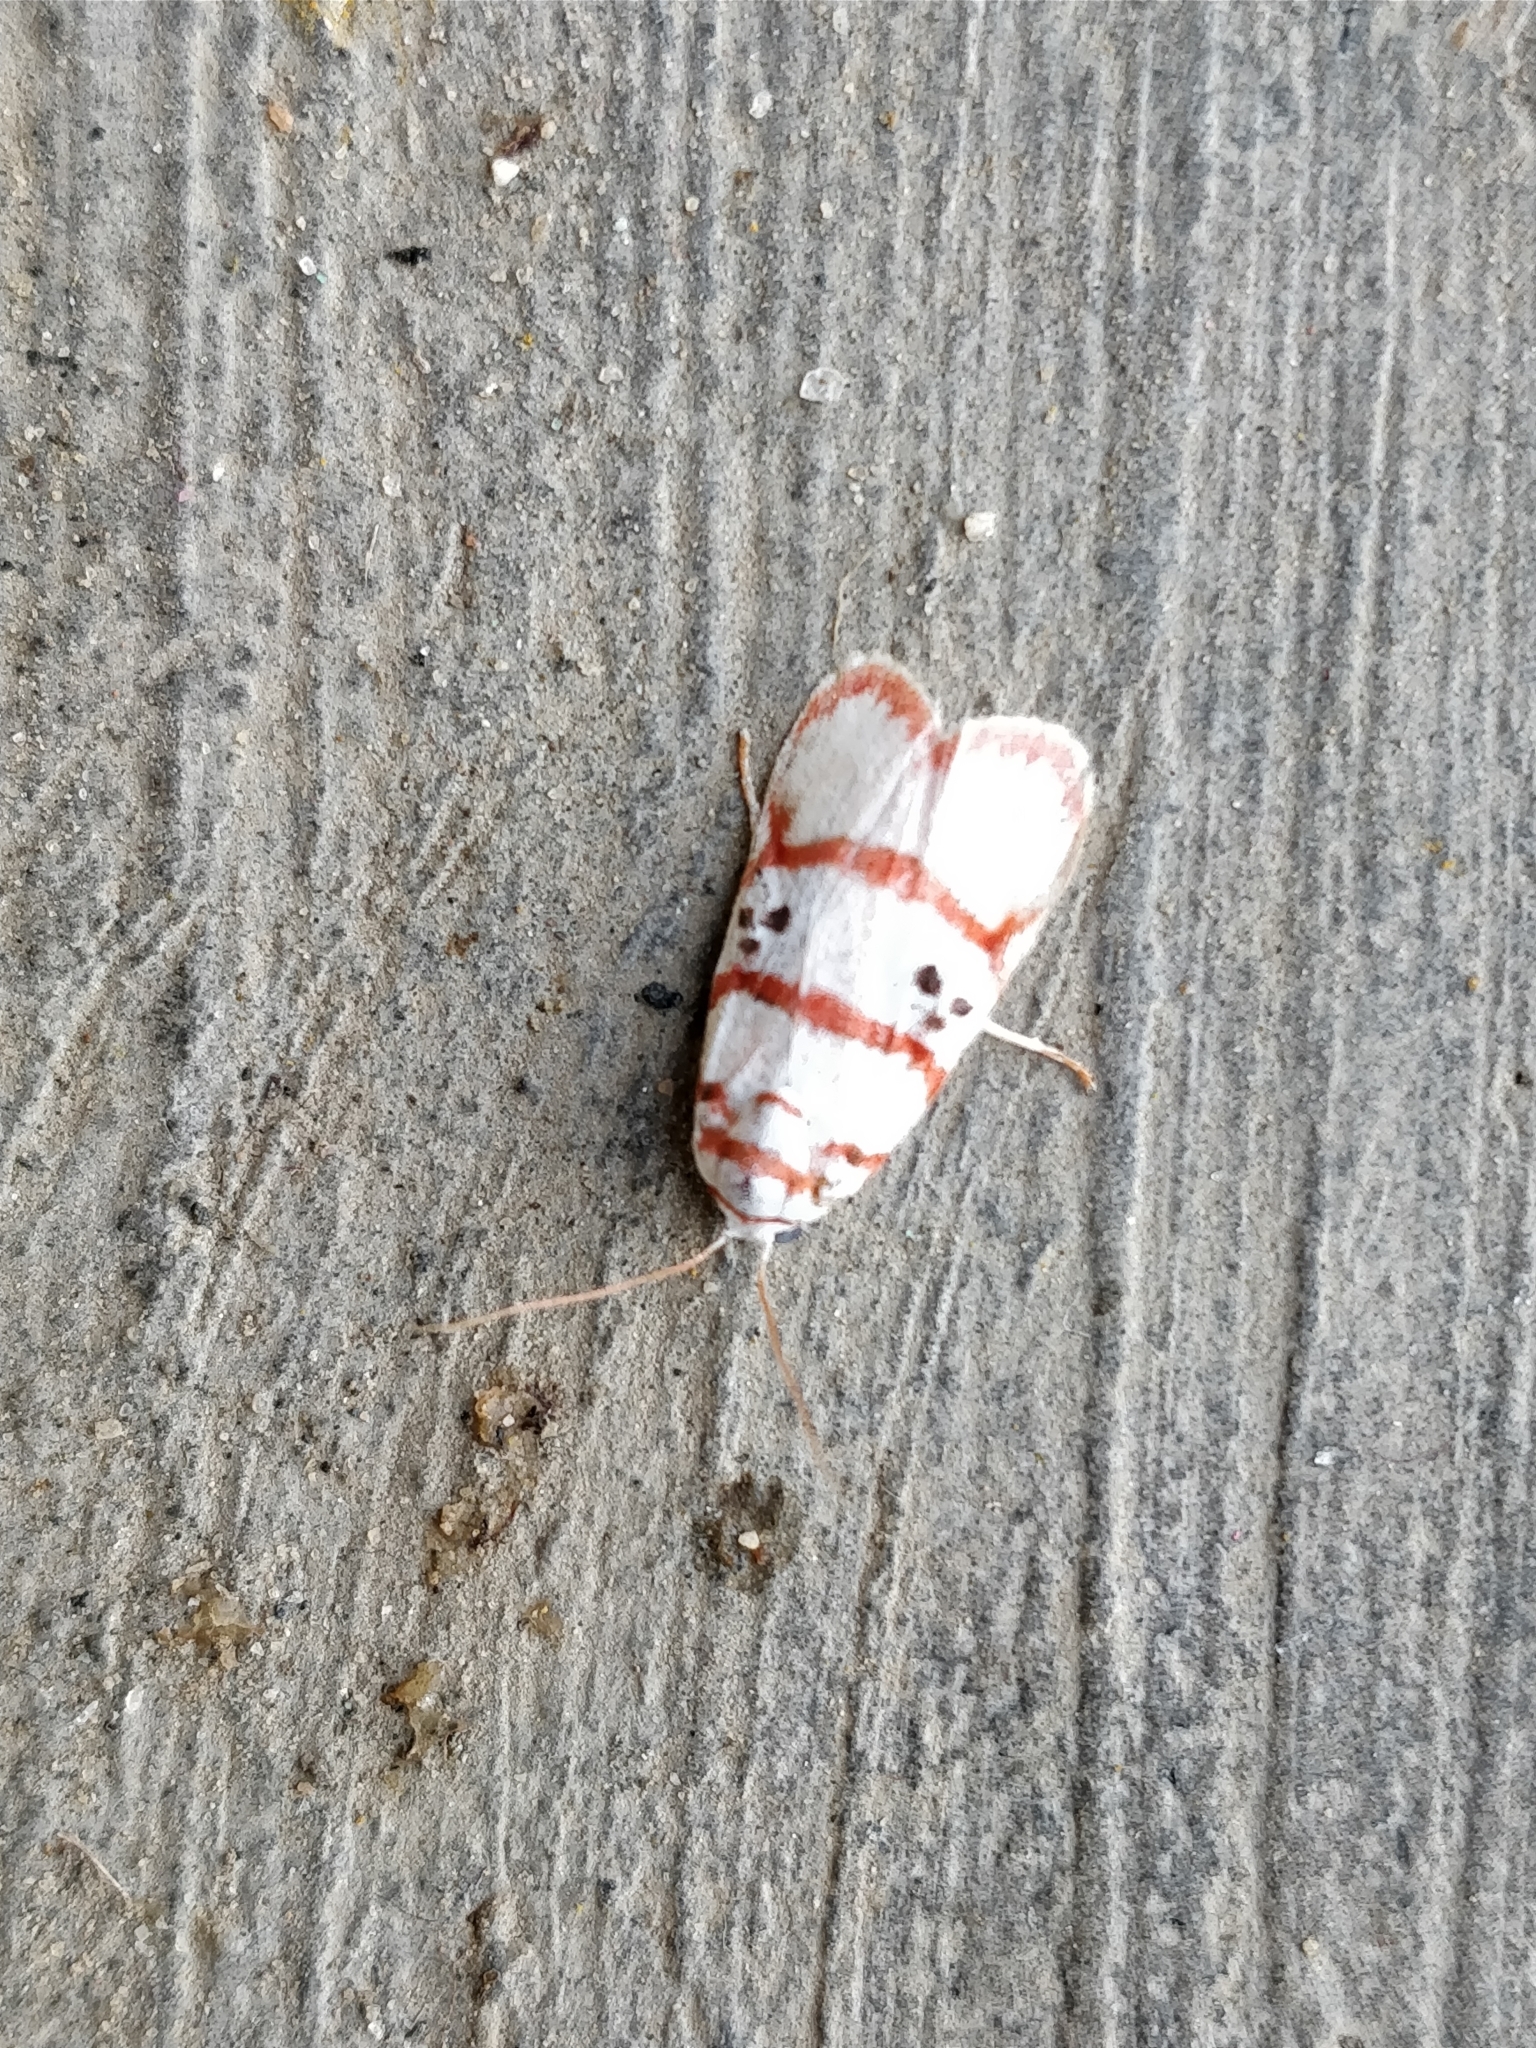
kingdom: Animalia
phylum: Arthropoda
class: Insecta
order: Lepidoptera
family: Erebidae
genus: Cyana
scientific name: Cyana peregrina
